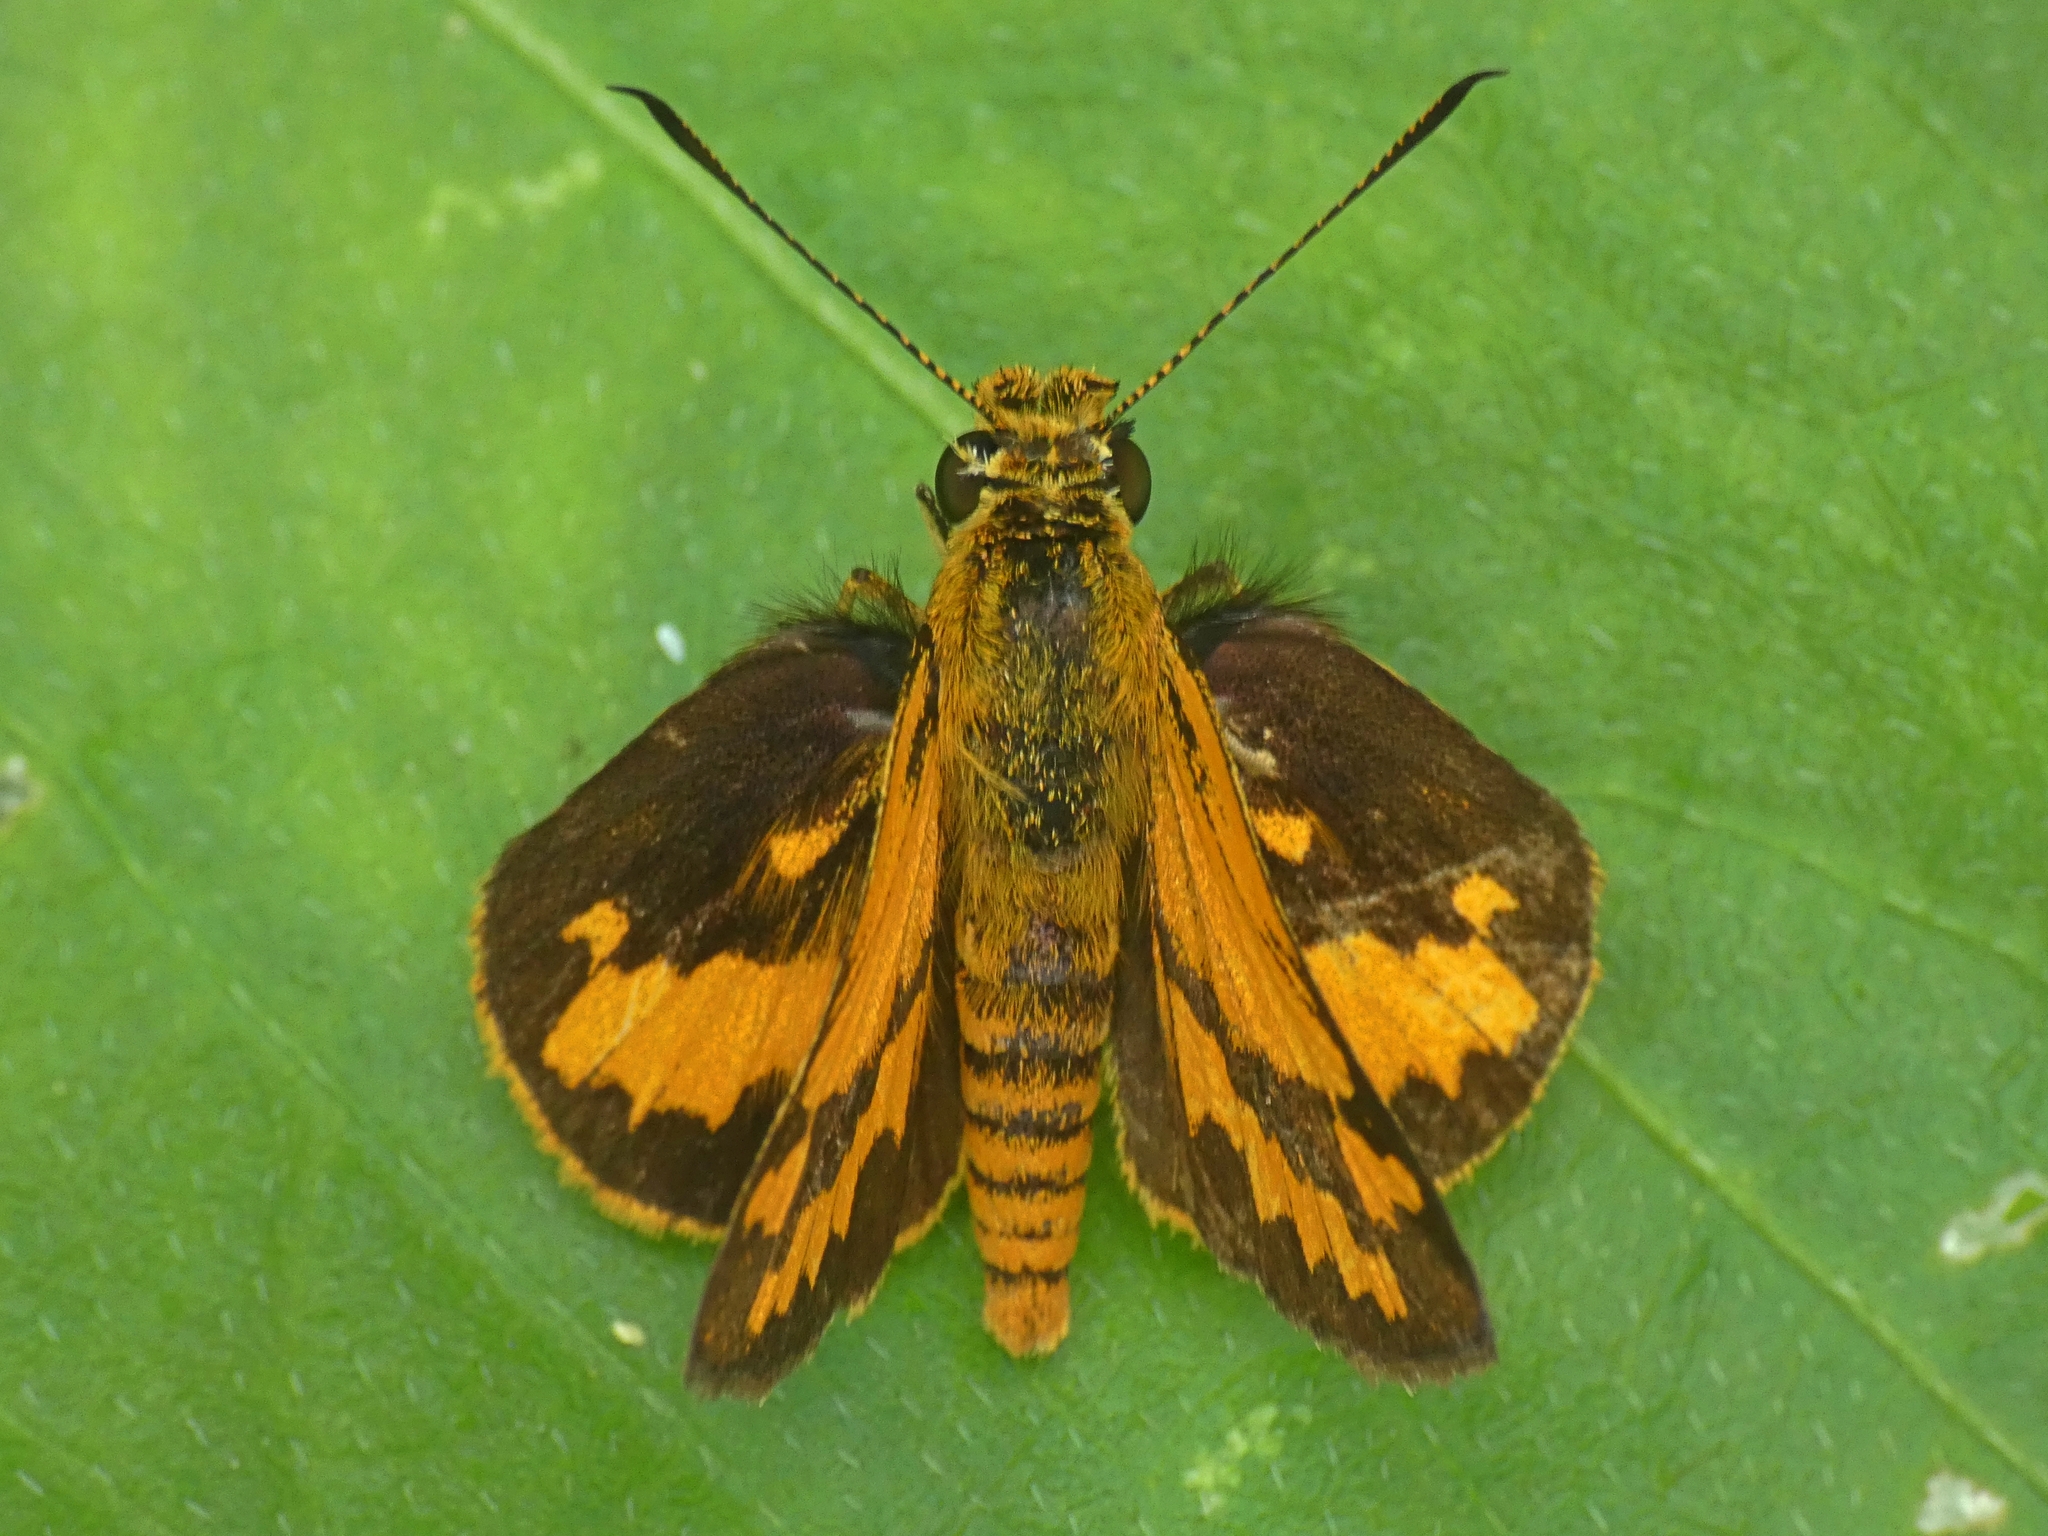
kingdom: Animalia
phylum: Arthropoda
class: Insecta
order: Lepidoptera
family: Hesperiidae
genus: Suniana
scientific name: Suniana sunias
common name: Wide-brand grass-dart
